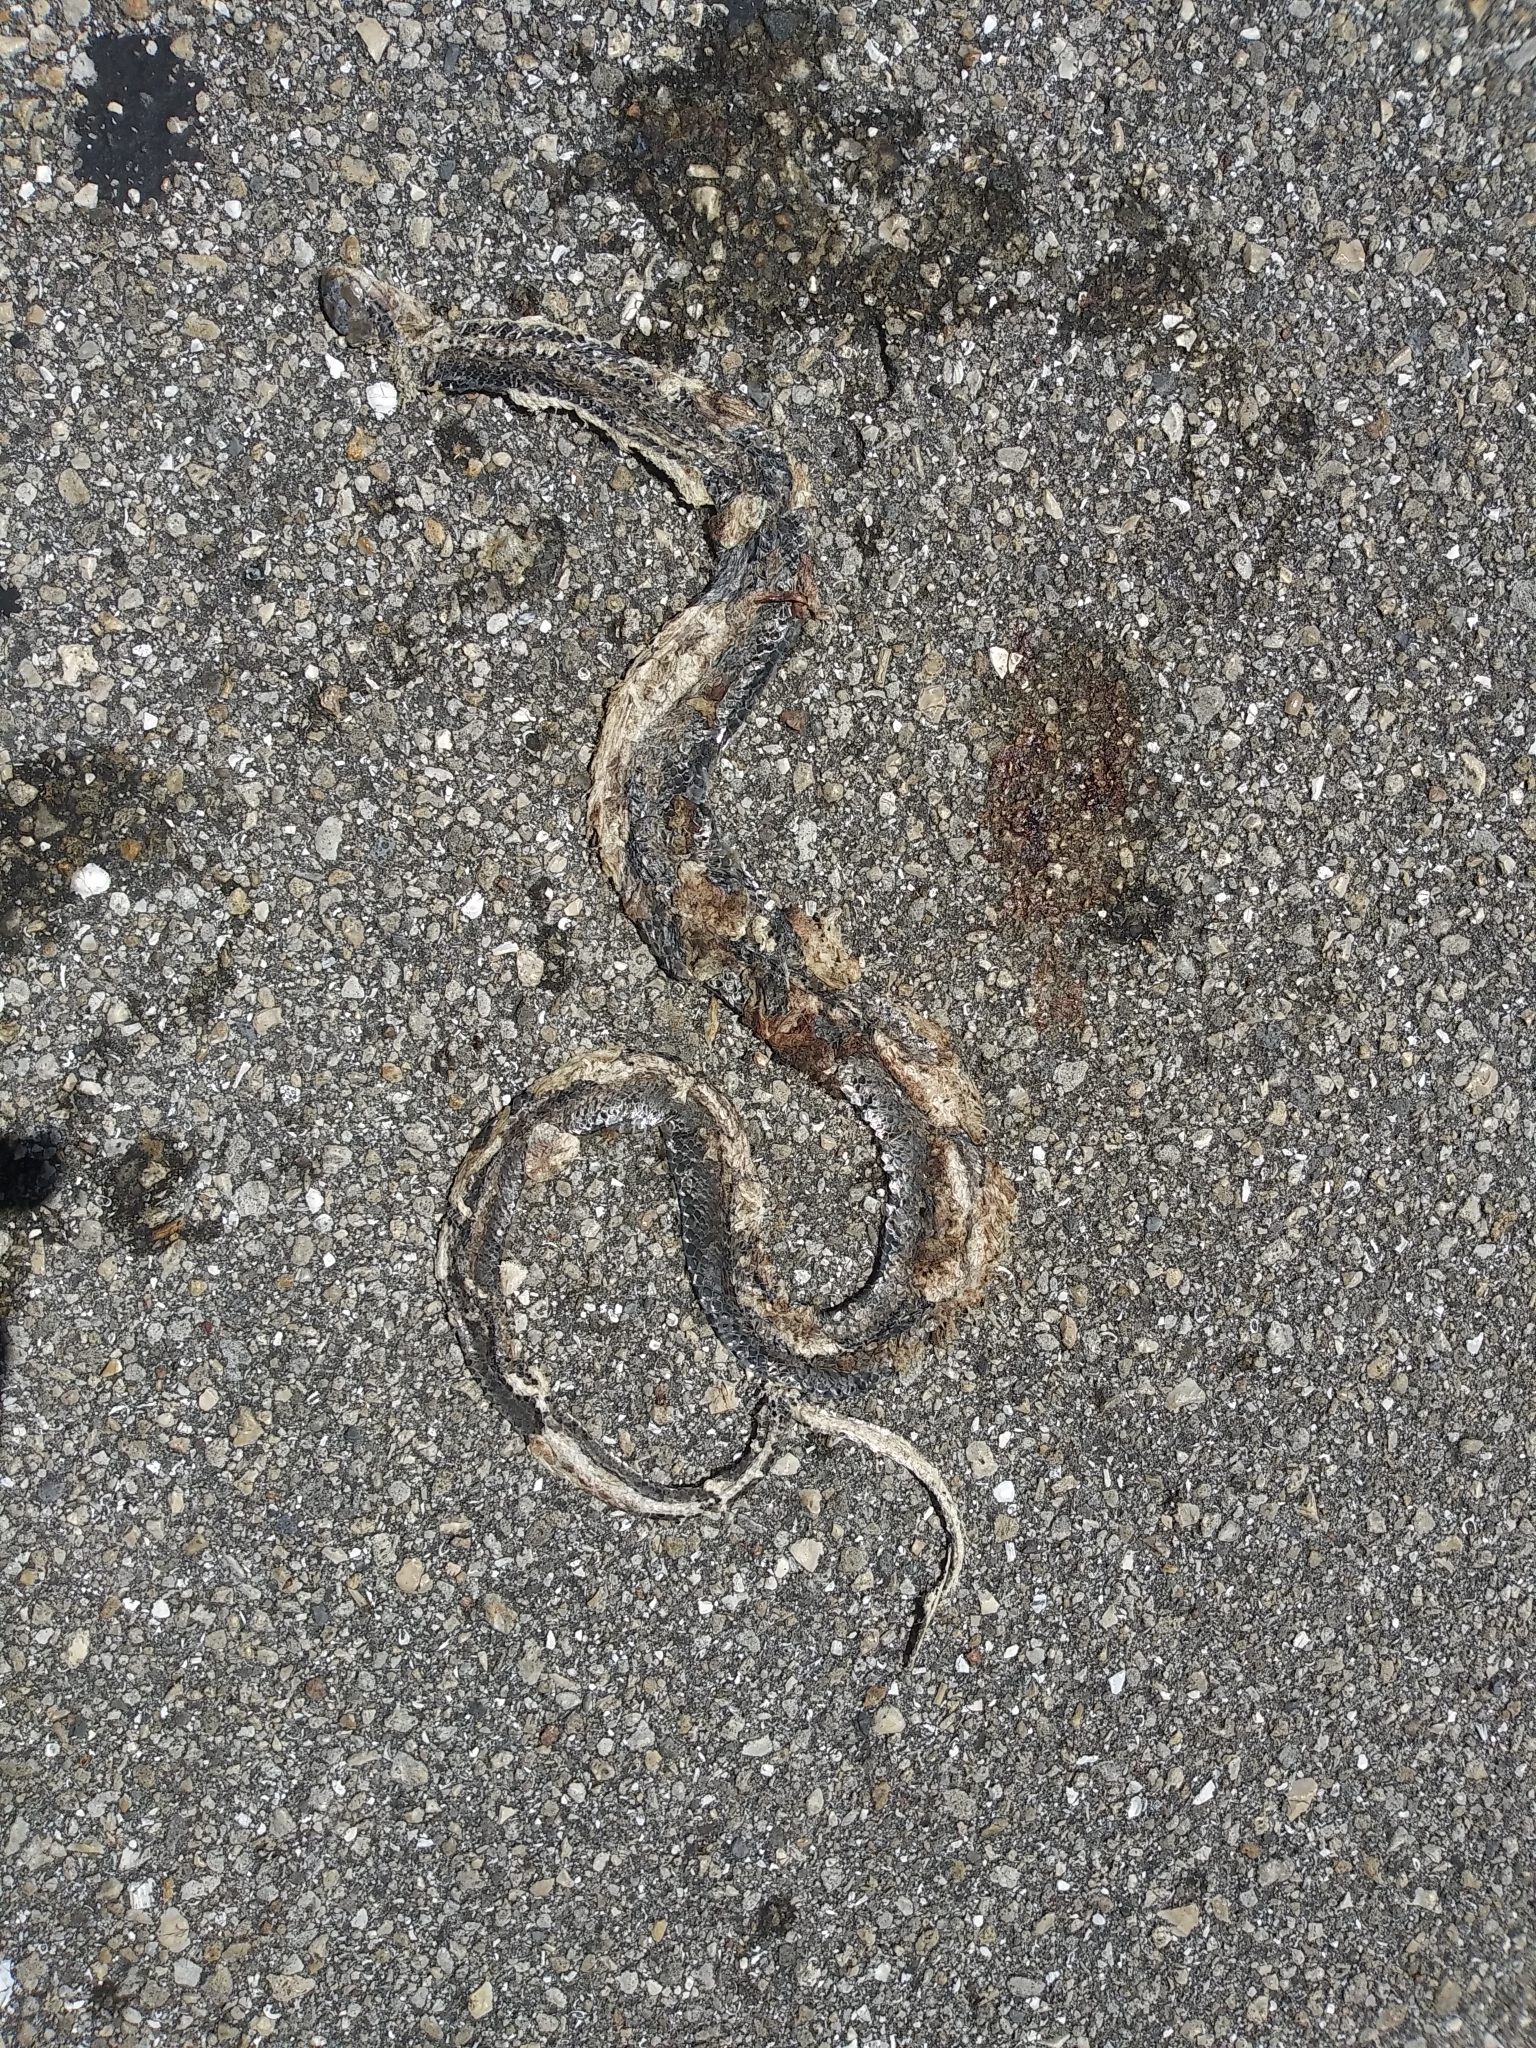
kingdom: Animalia
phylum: Chordata
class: Squamata
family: Colubridae
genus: Coluber
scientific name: Coluber constrictor
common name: Eastern racer
